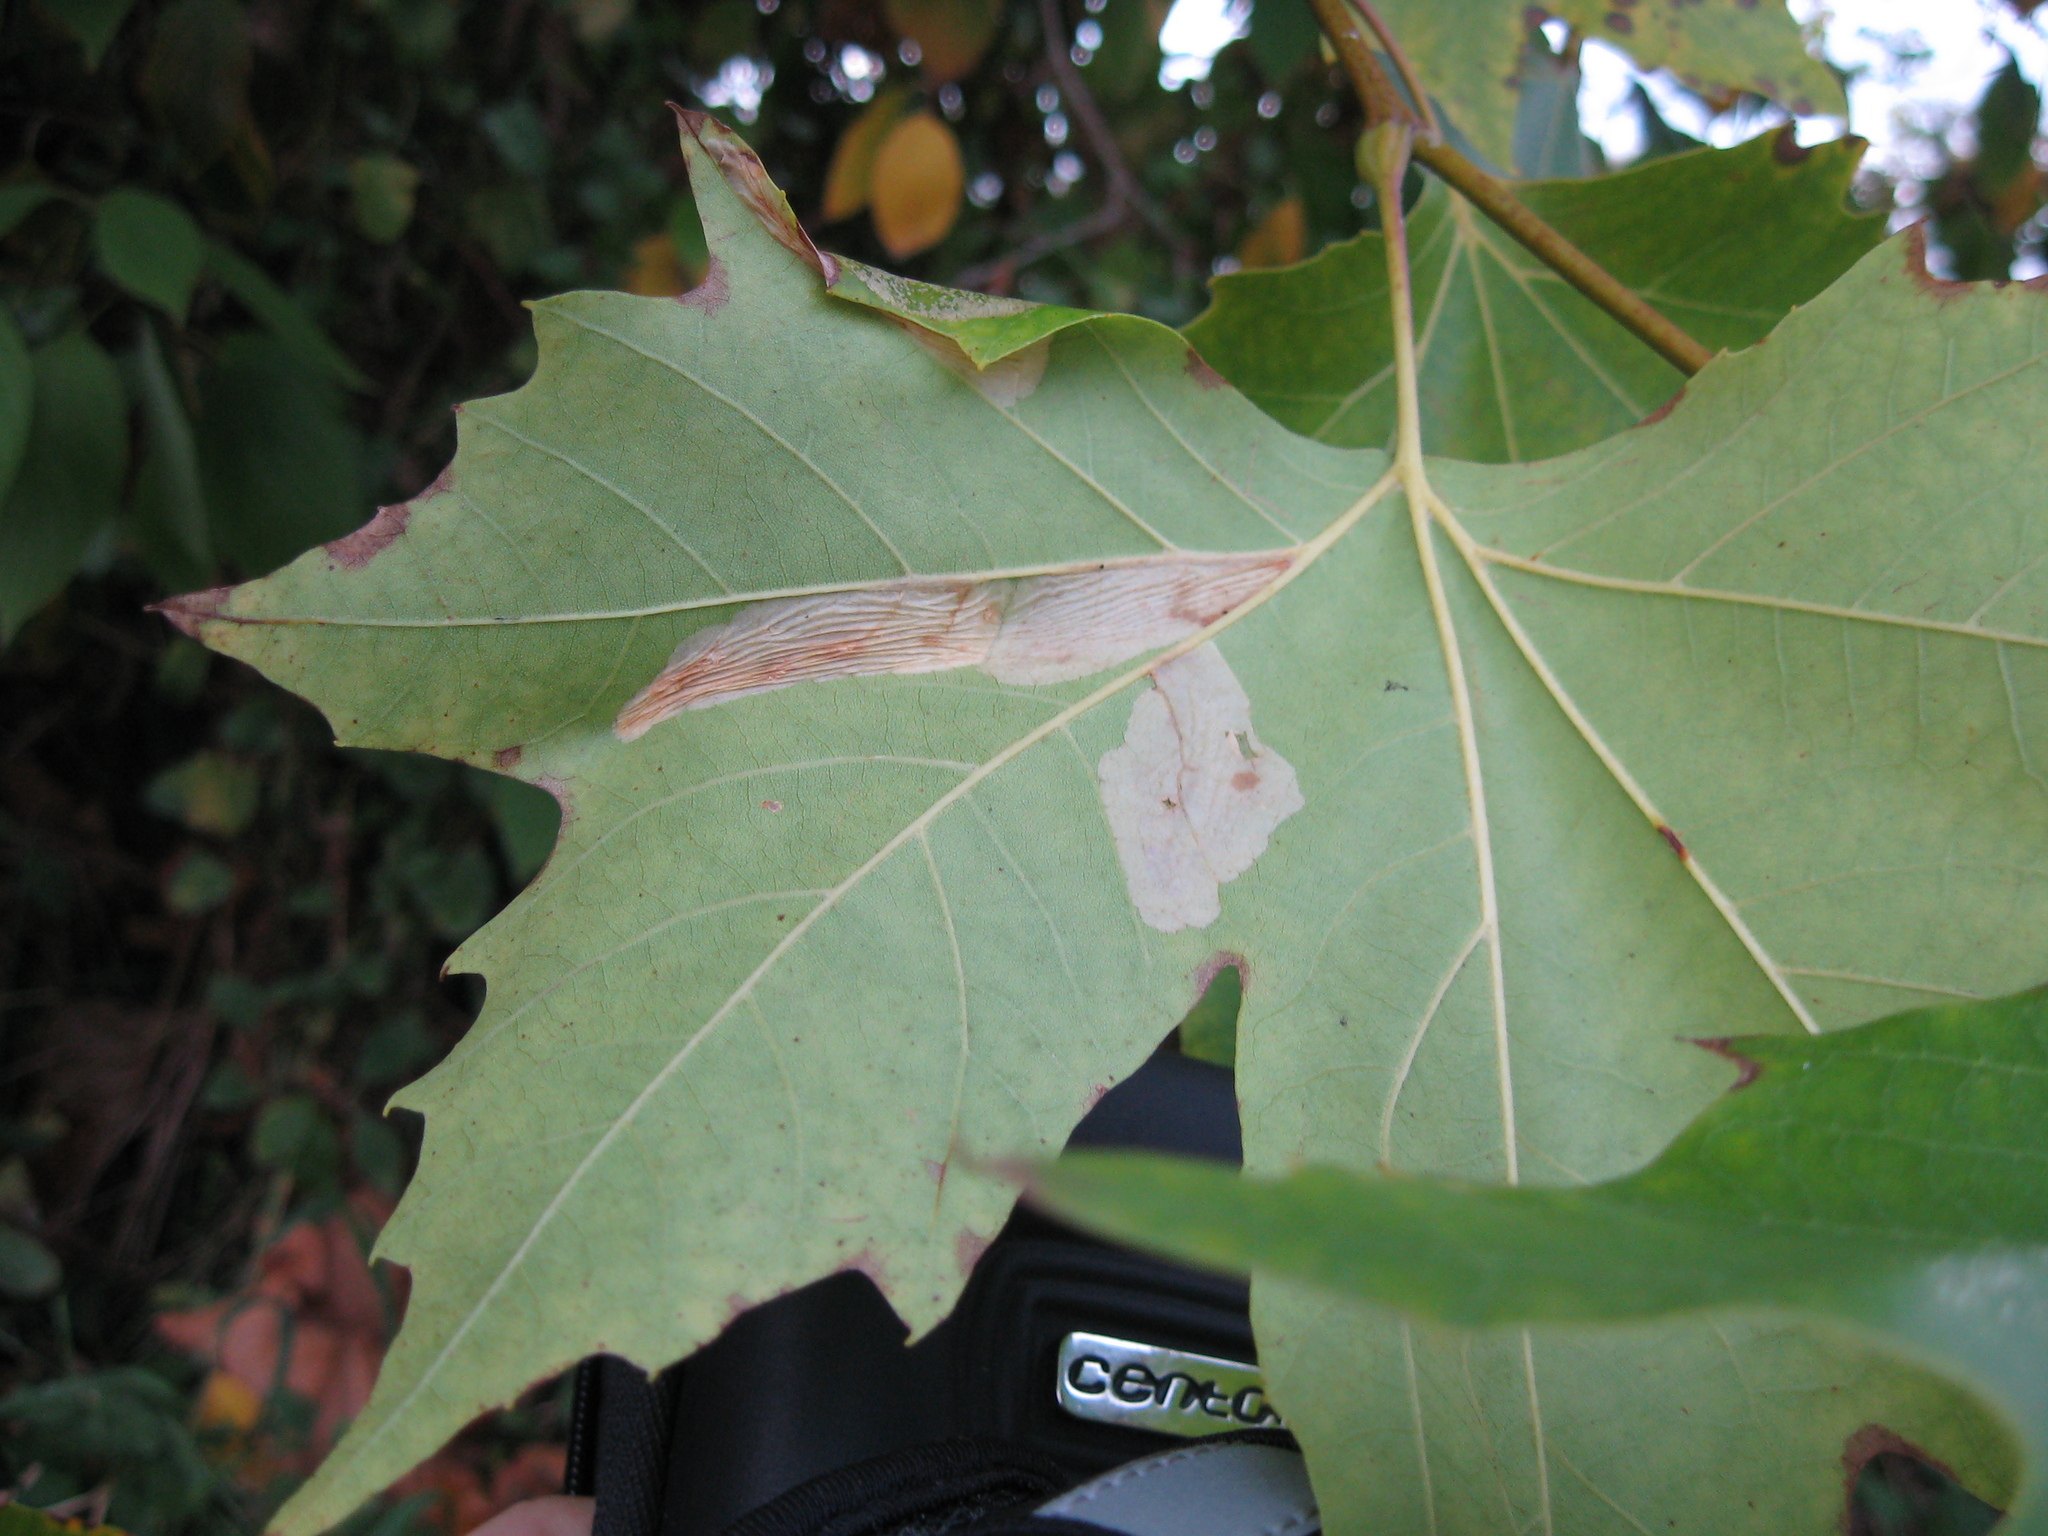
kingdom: Animalia
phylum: Arthropoda
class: Insecta
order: Lepidoptera
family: Gracillariidae
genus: Phyllonorycter
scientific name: Phyllonorycter platani
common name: London midget
